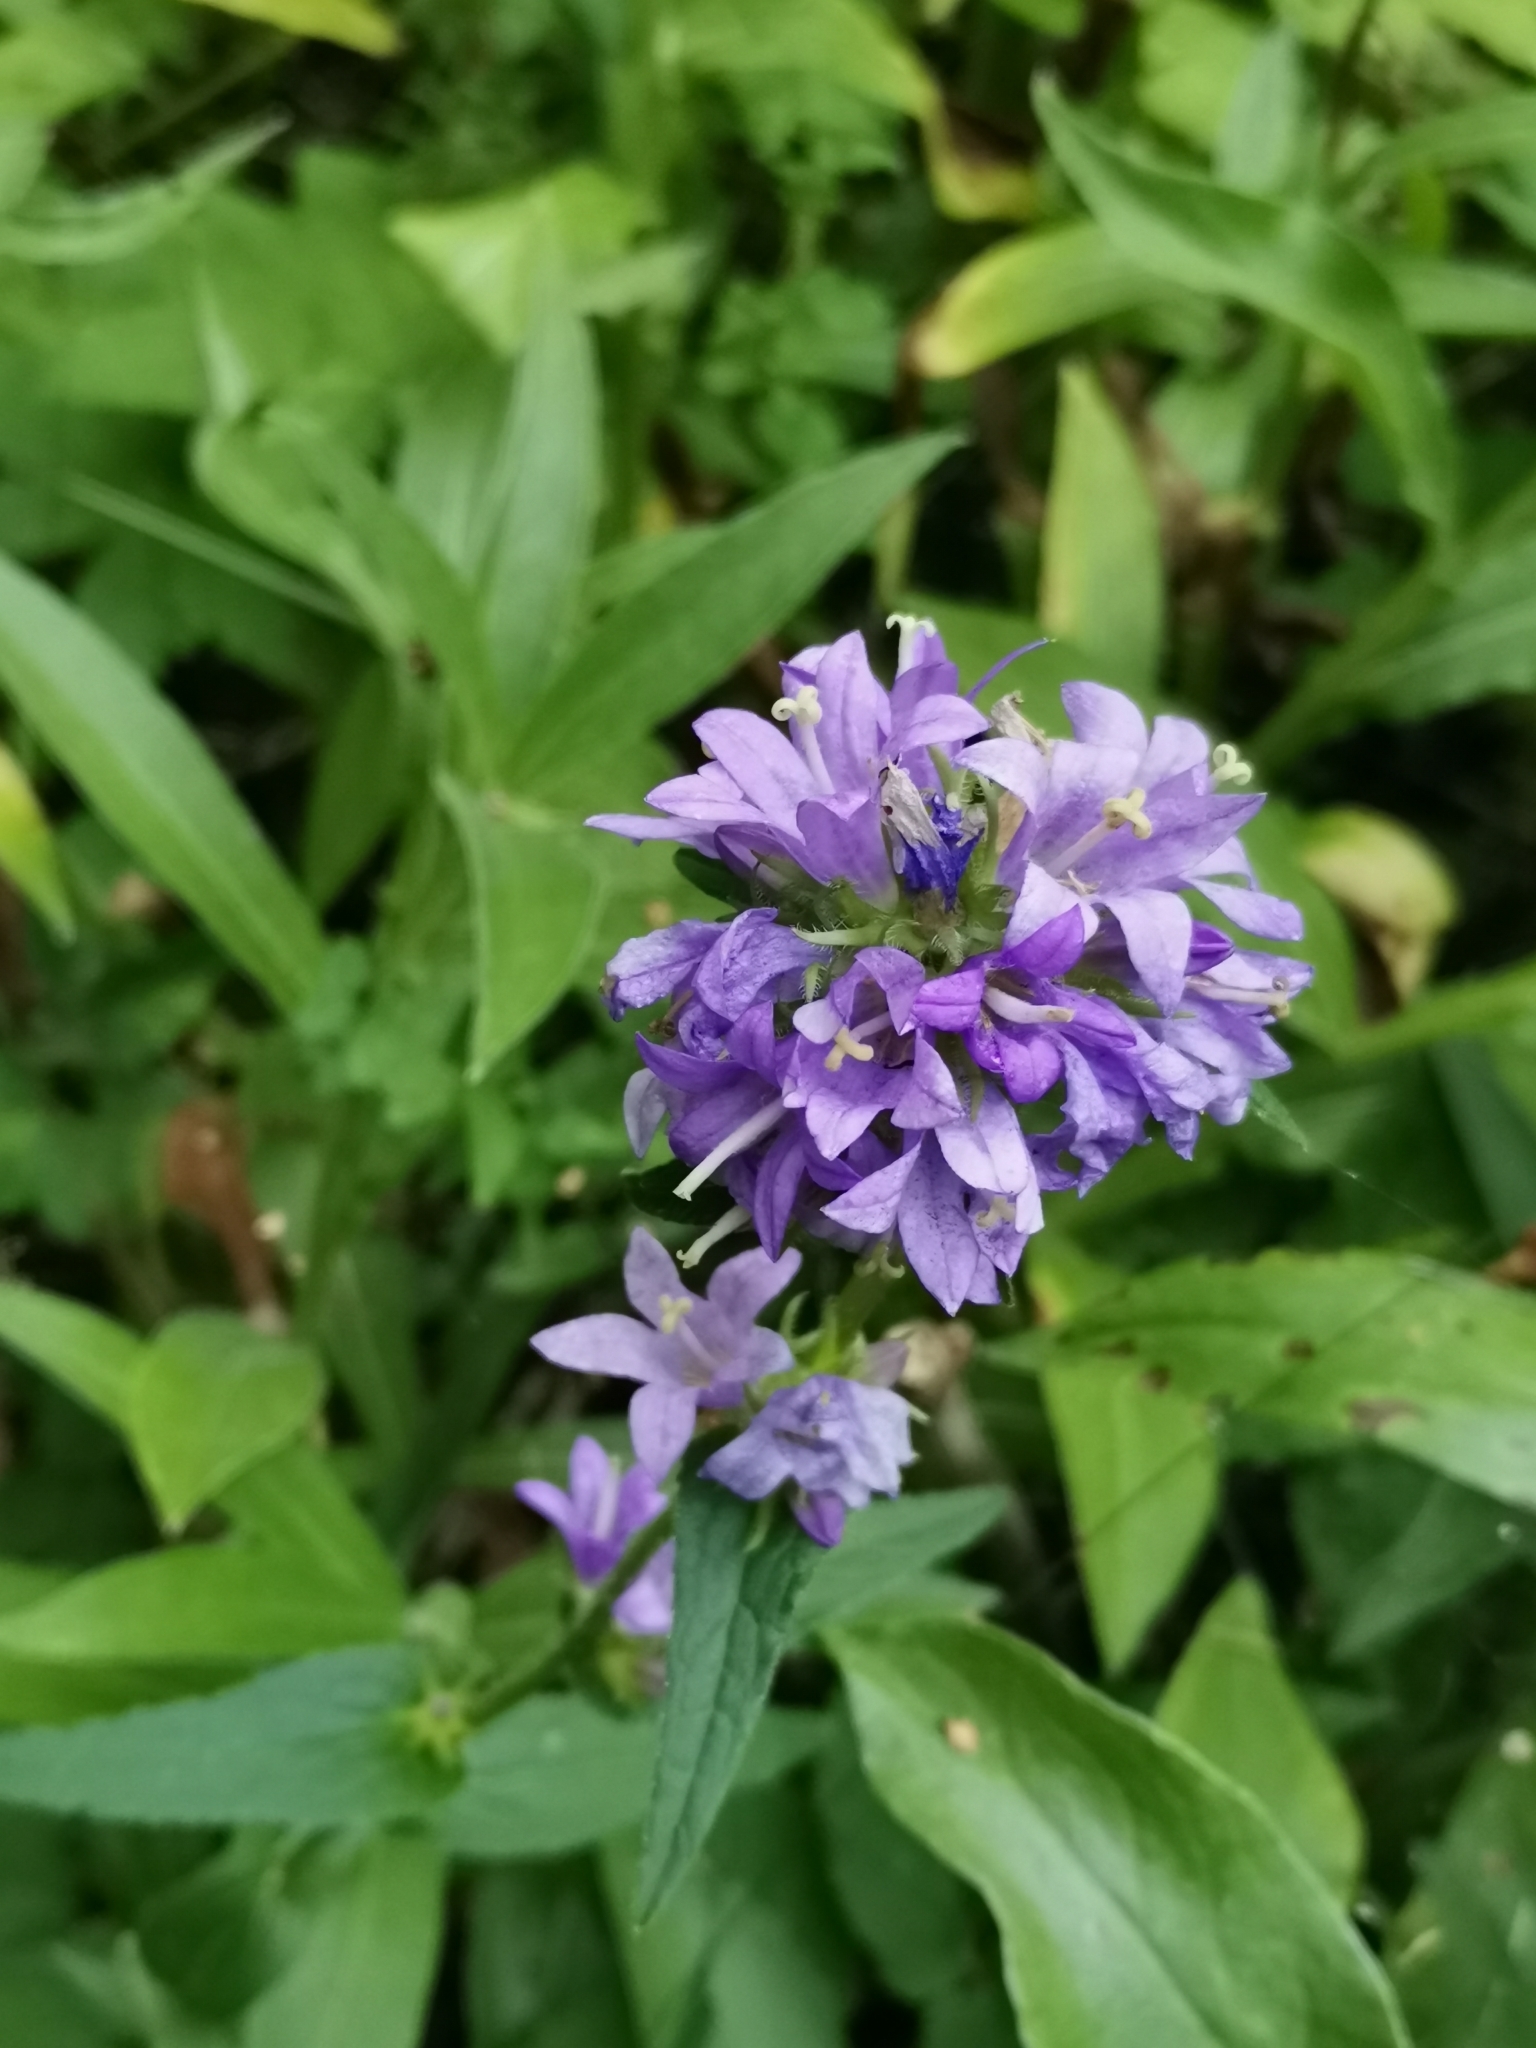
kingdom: Plantae
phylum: Tracheophyta
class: Magnoliopsida
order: Asterales
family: Campanulaceae
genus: Campanula
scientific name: Campanula glomerata
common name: Clustered bellflower
